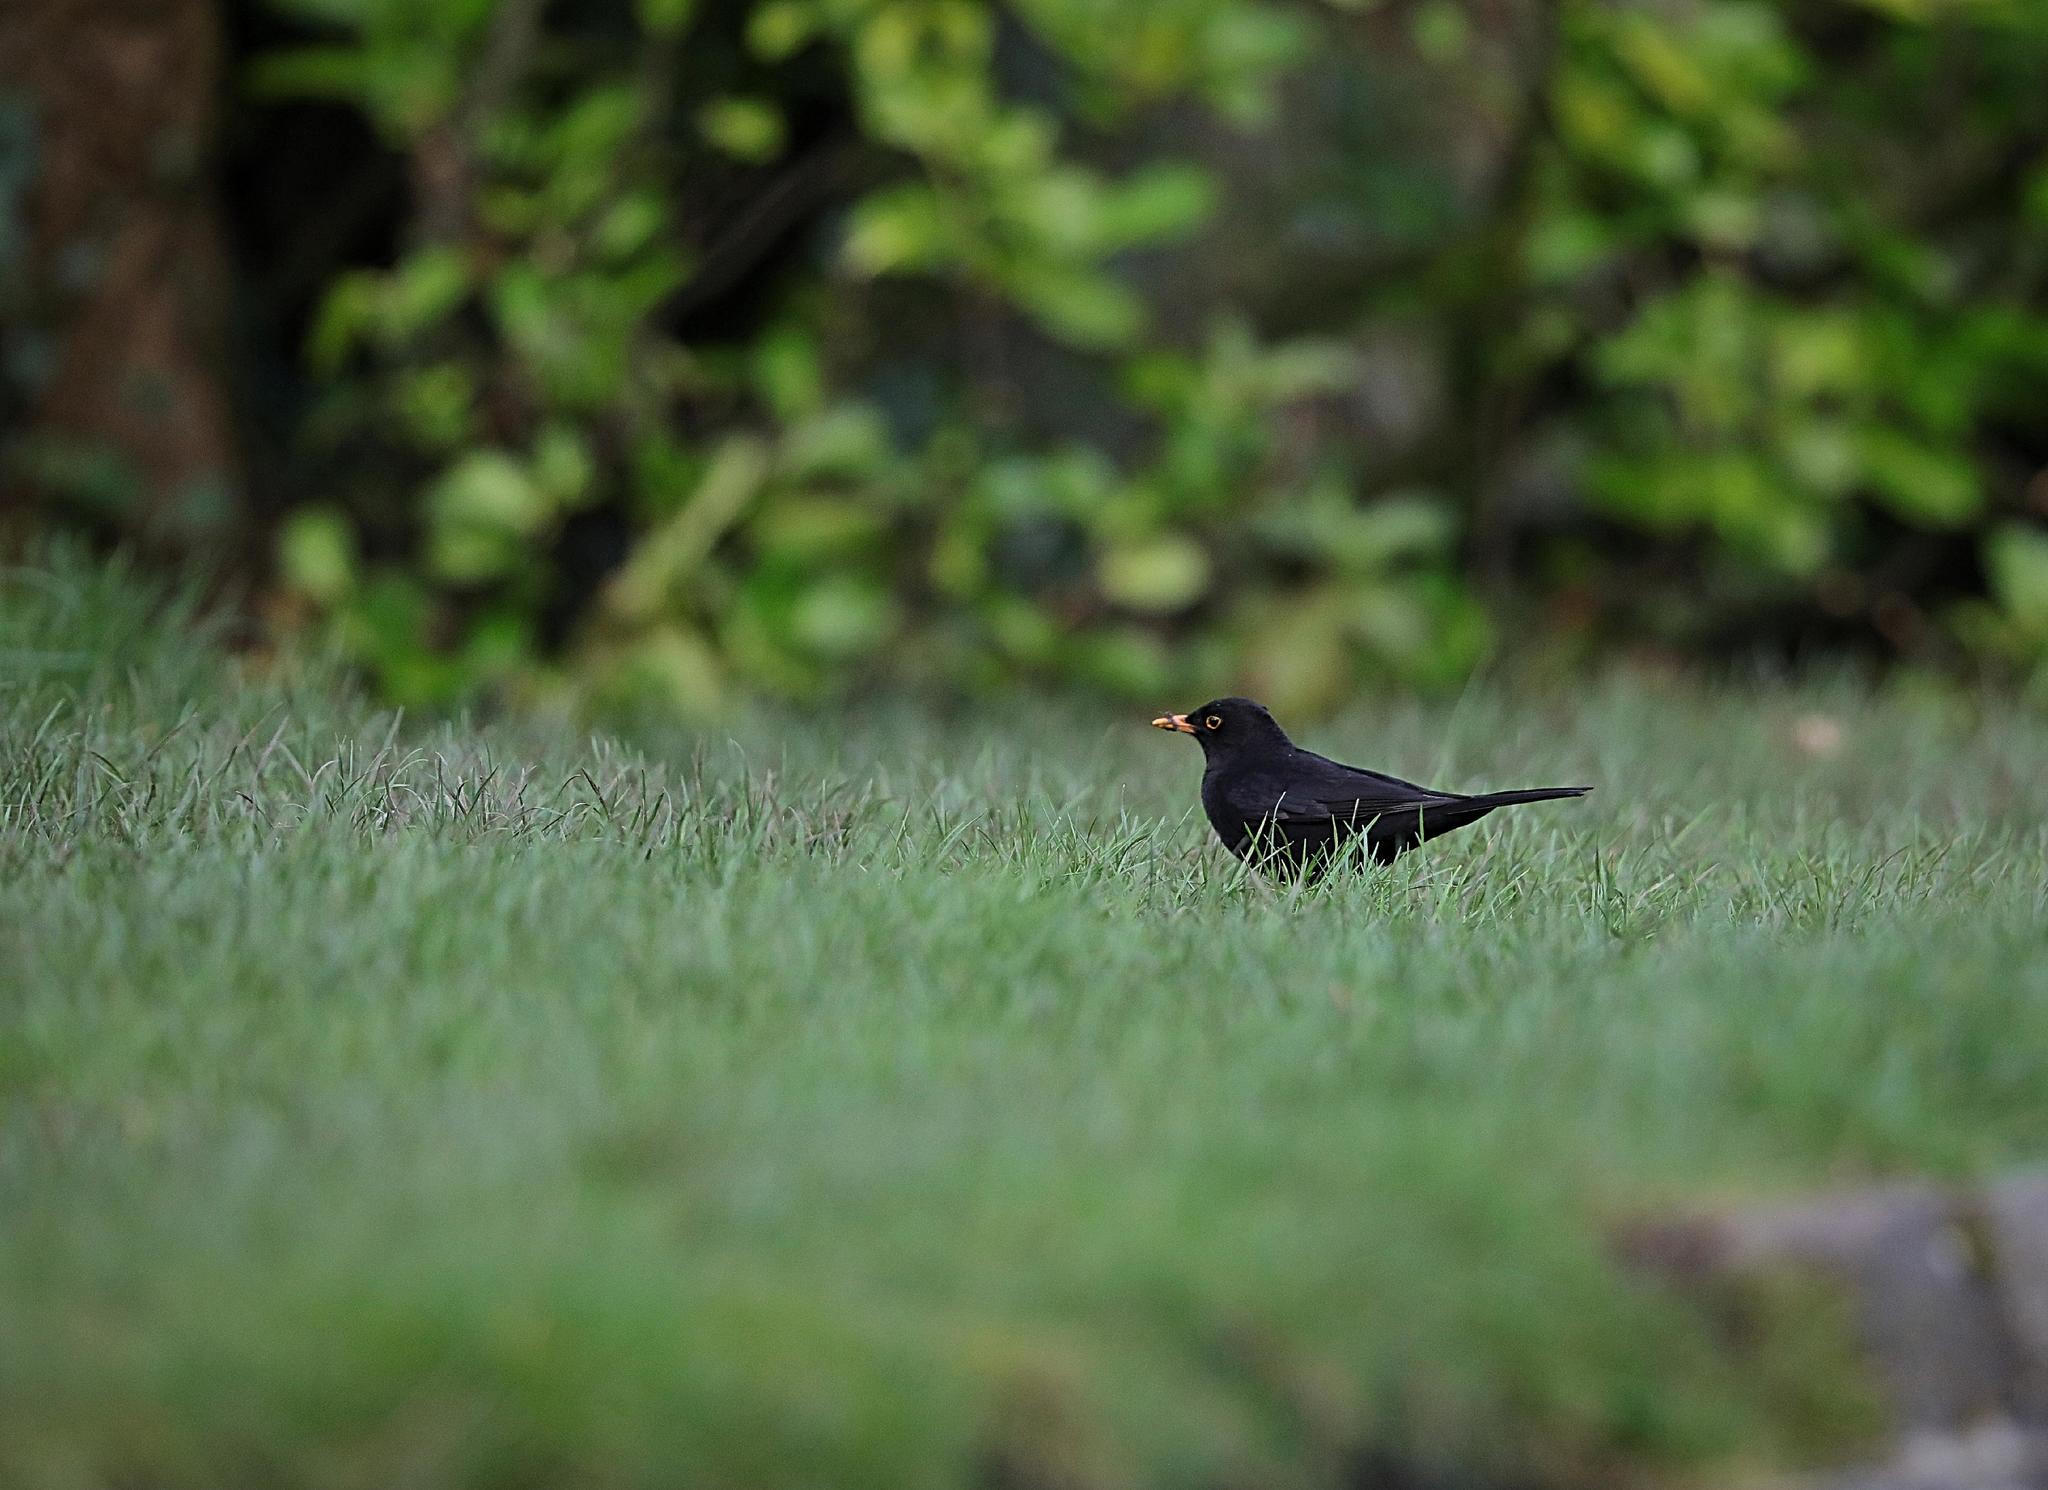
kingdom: Animalia
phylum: Chordata
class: Aves
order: Passeriformes
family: Turdidae
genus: Turdus
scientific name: Turdus merula
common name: Common blackbird
